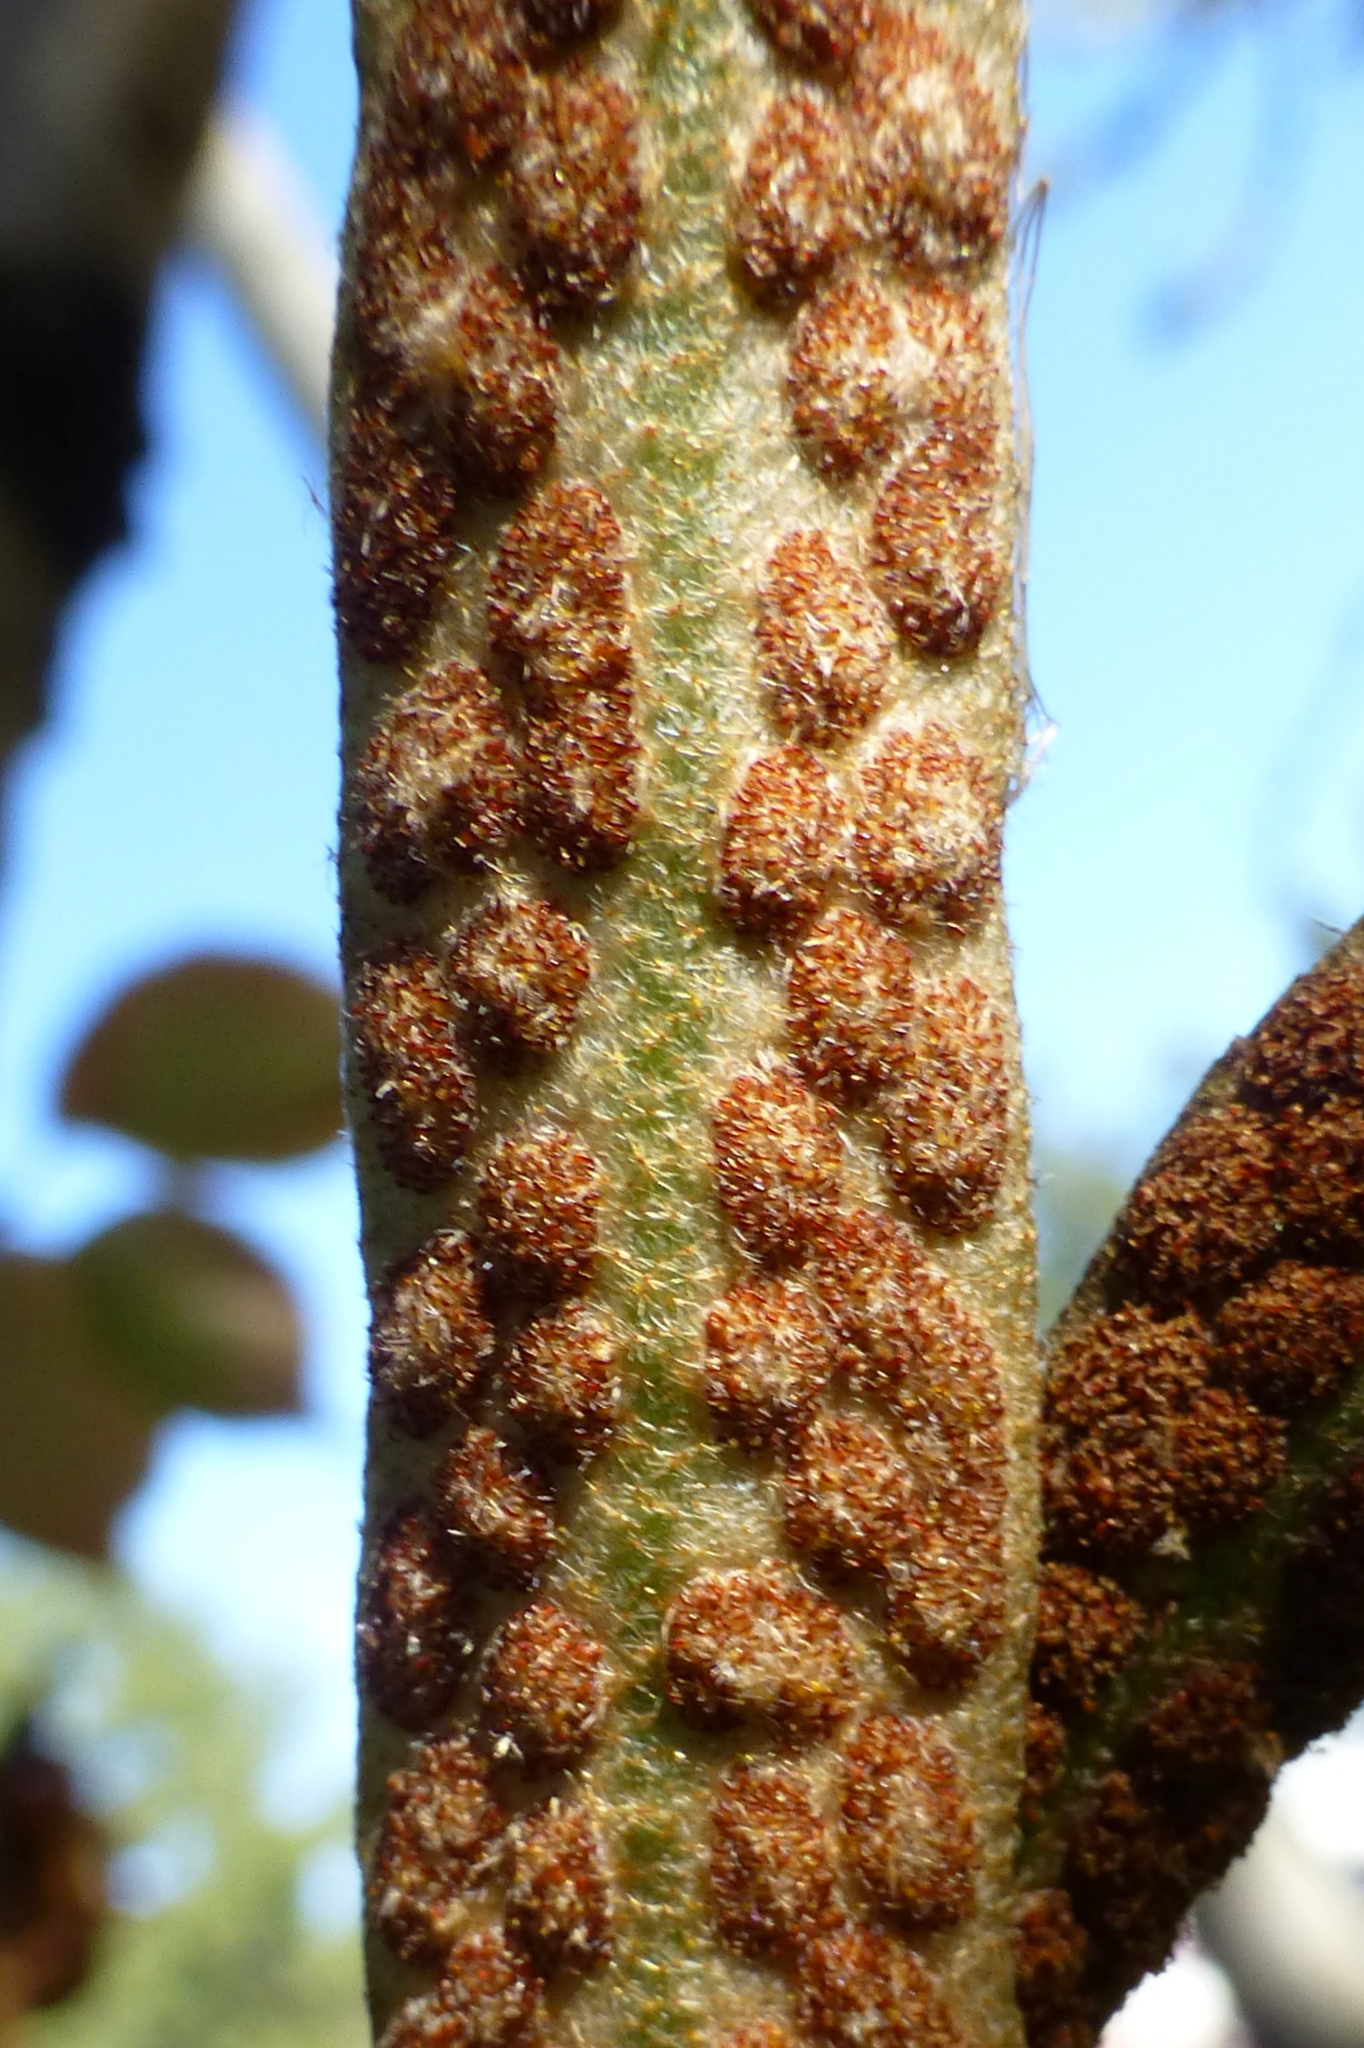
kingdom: Plantae
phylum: Tracheophyta
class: Polypodiopsida
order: Polypodiales
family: Polypodiaceae
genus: Pyrrosia
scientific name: Pyrrosia eleagnifolia
